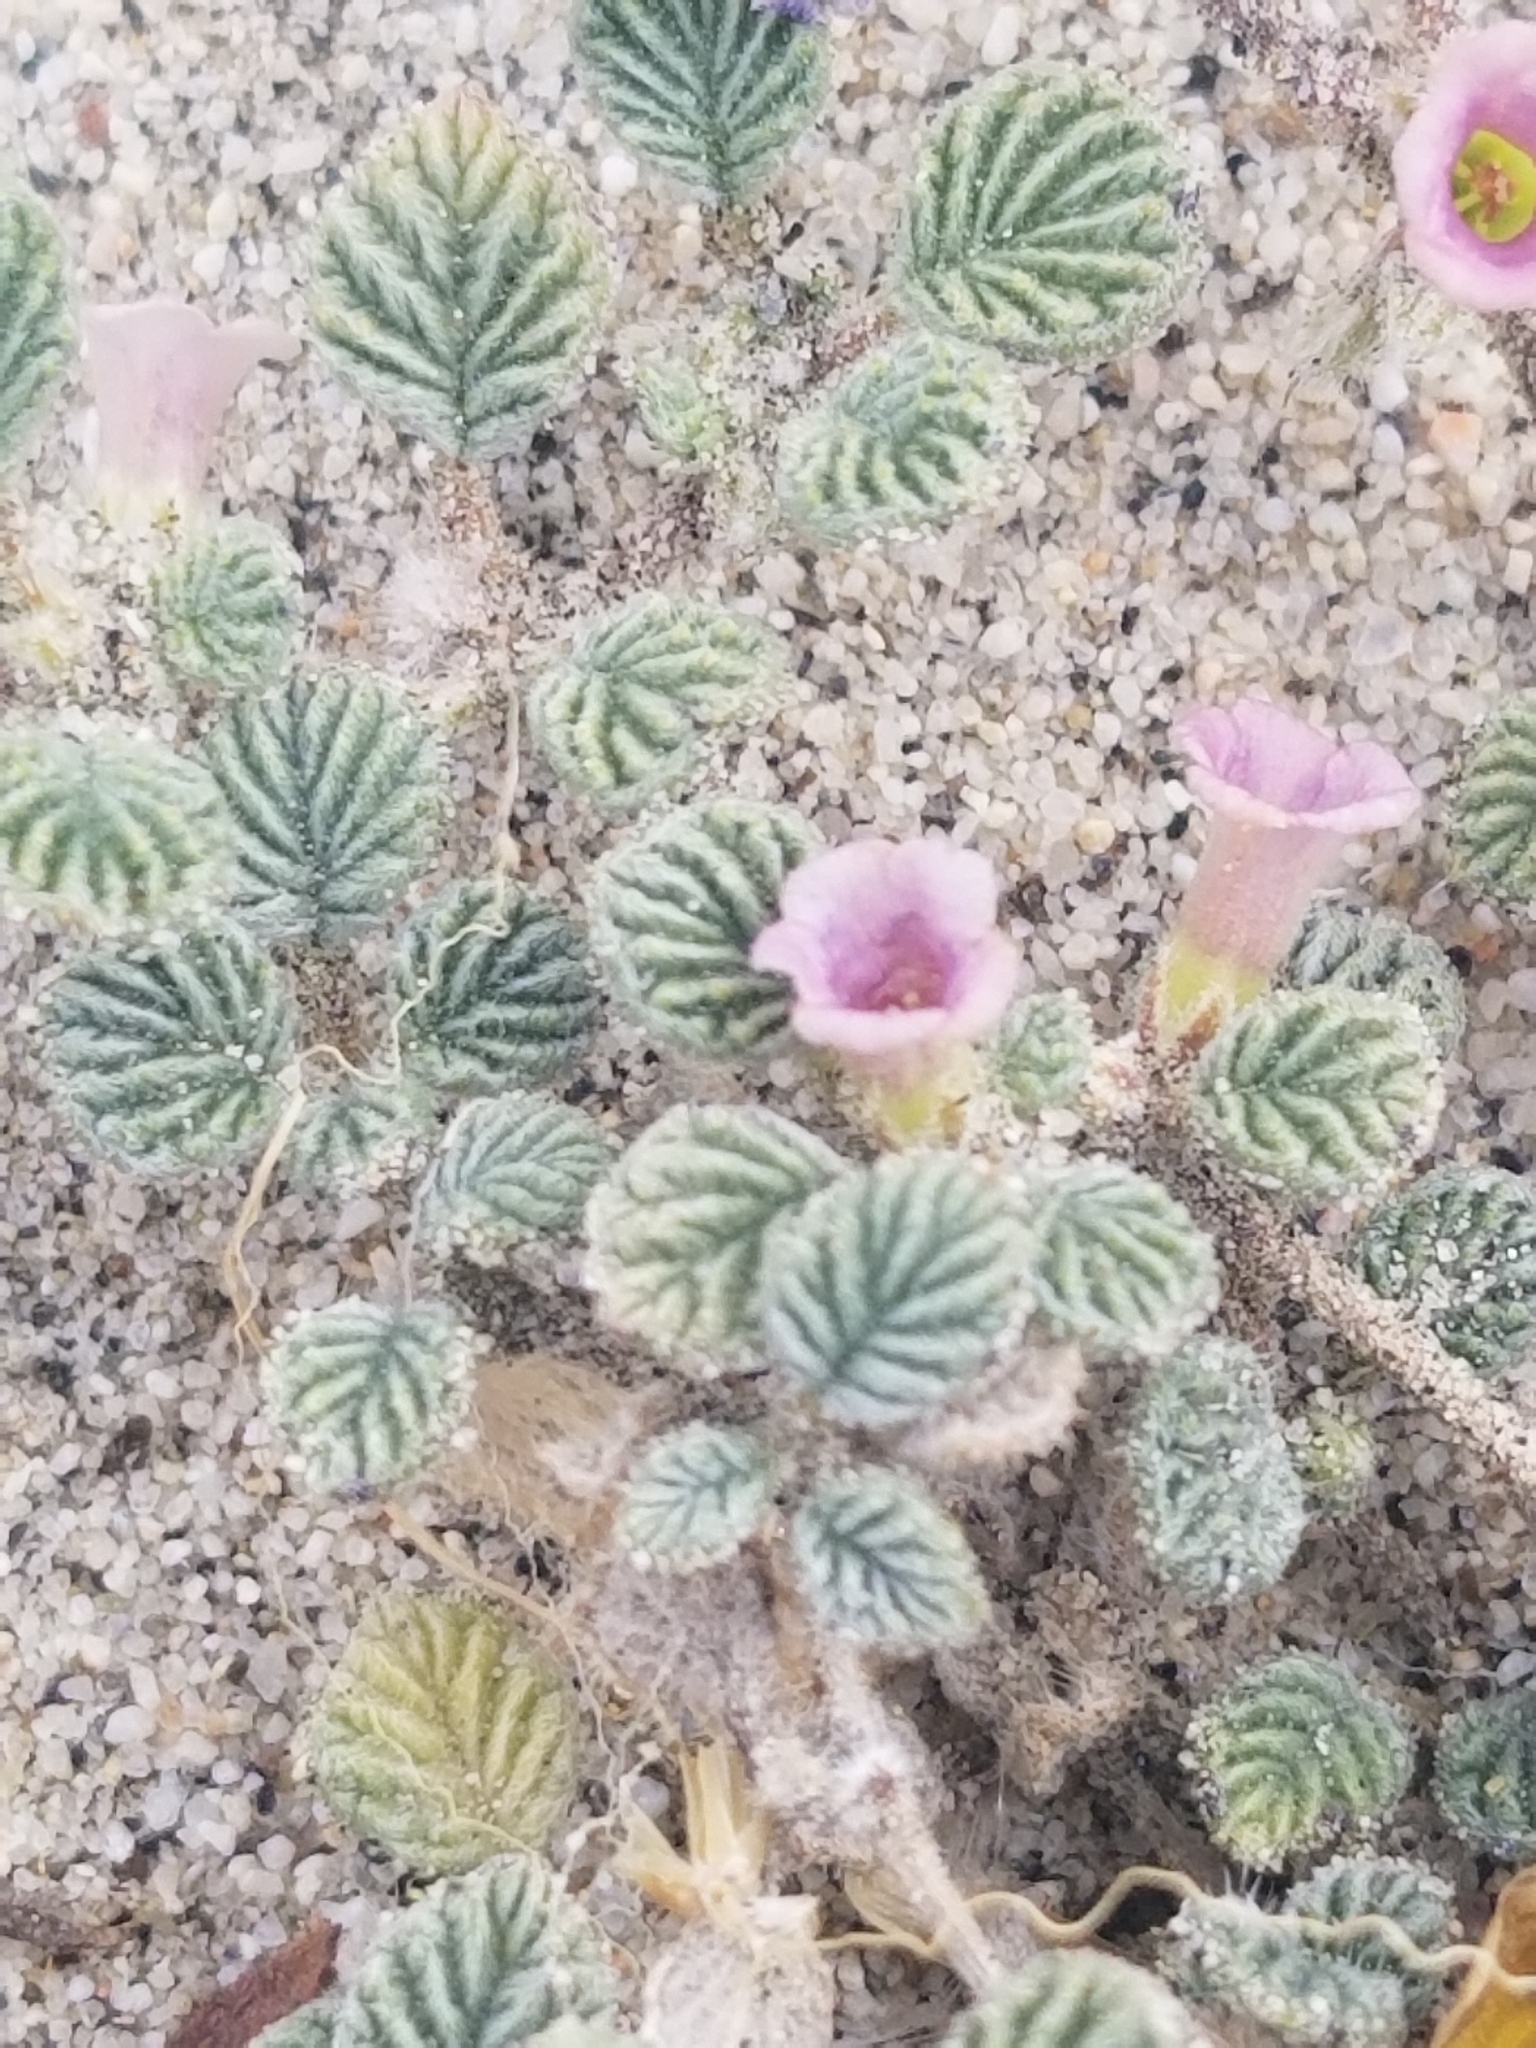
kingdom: Plantae
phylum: Tracheophyta
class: Magnoliopsida
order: Boraginales
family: Ehretiaceae
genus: Tiquilia
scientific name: Tiquilia plicata
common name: Fan-leaf tiquilia
